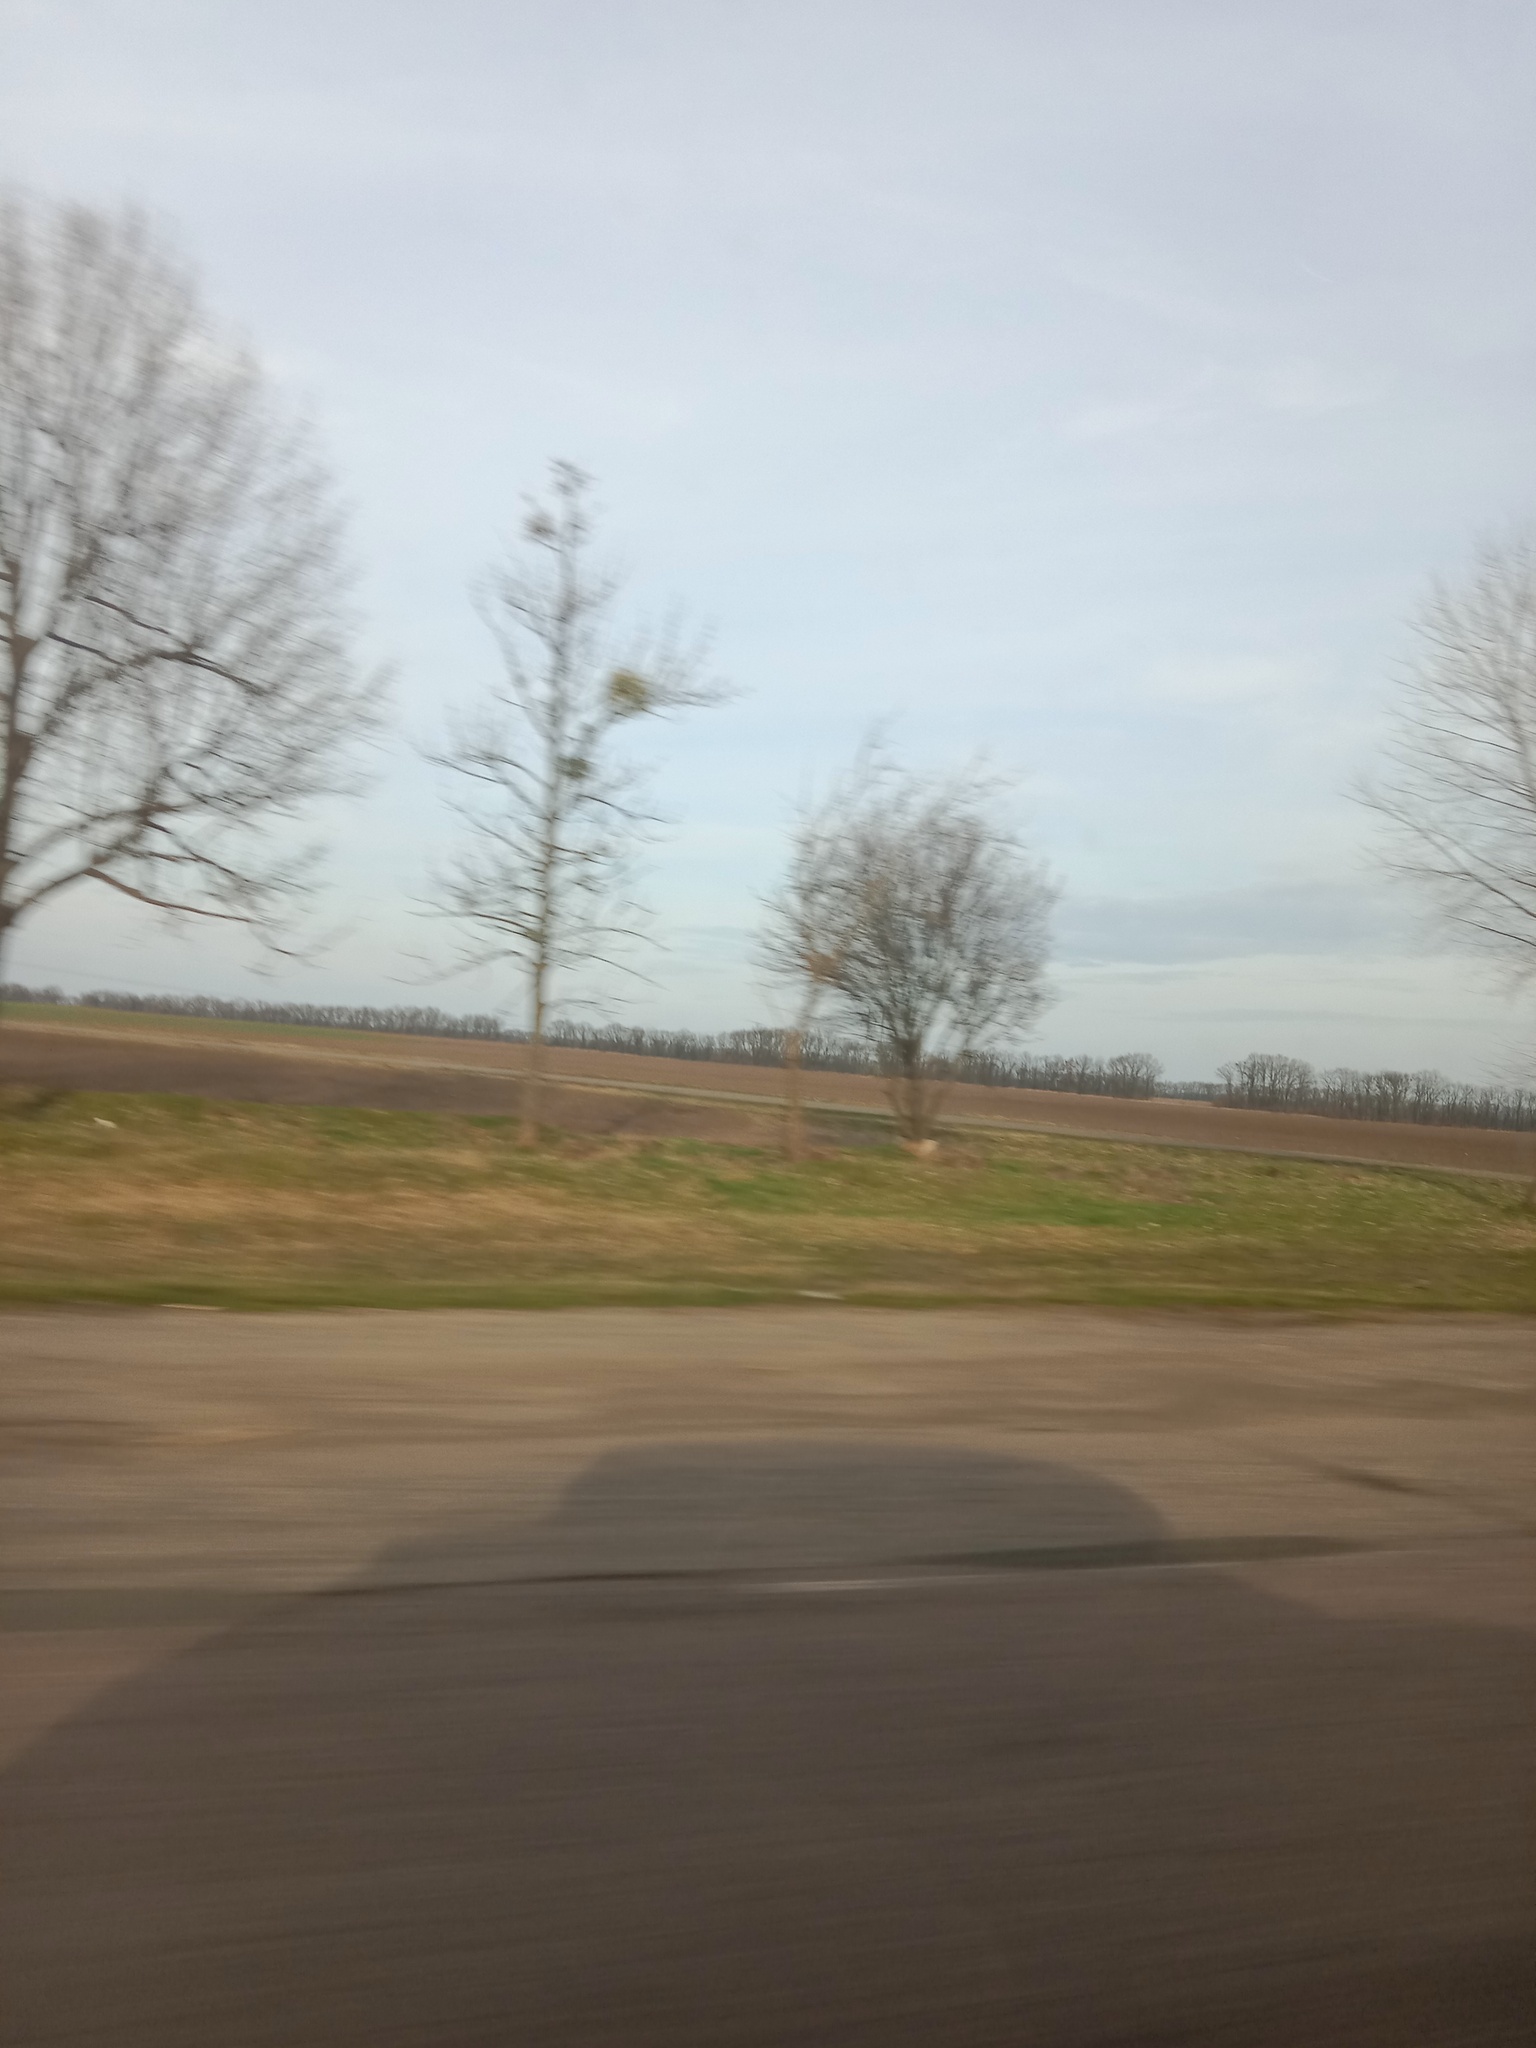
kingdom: Plantae
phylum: Tracheophyta
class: Magnoliopsida
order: Santalales
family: Viscaceae
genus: Viscum
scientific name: Viscum album
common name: Mistletoe
